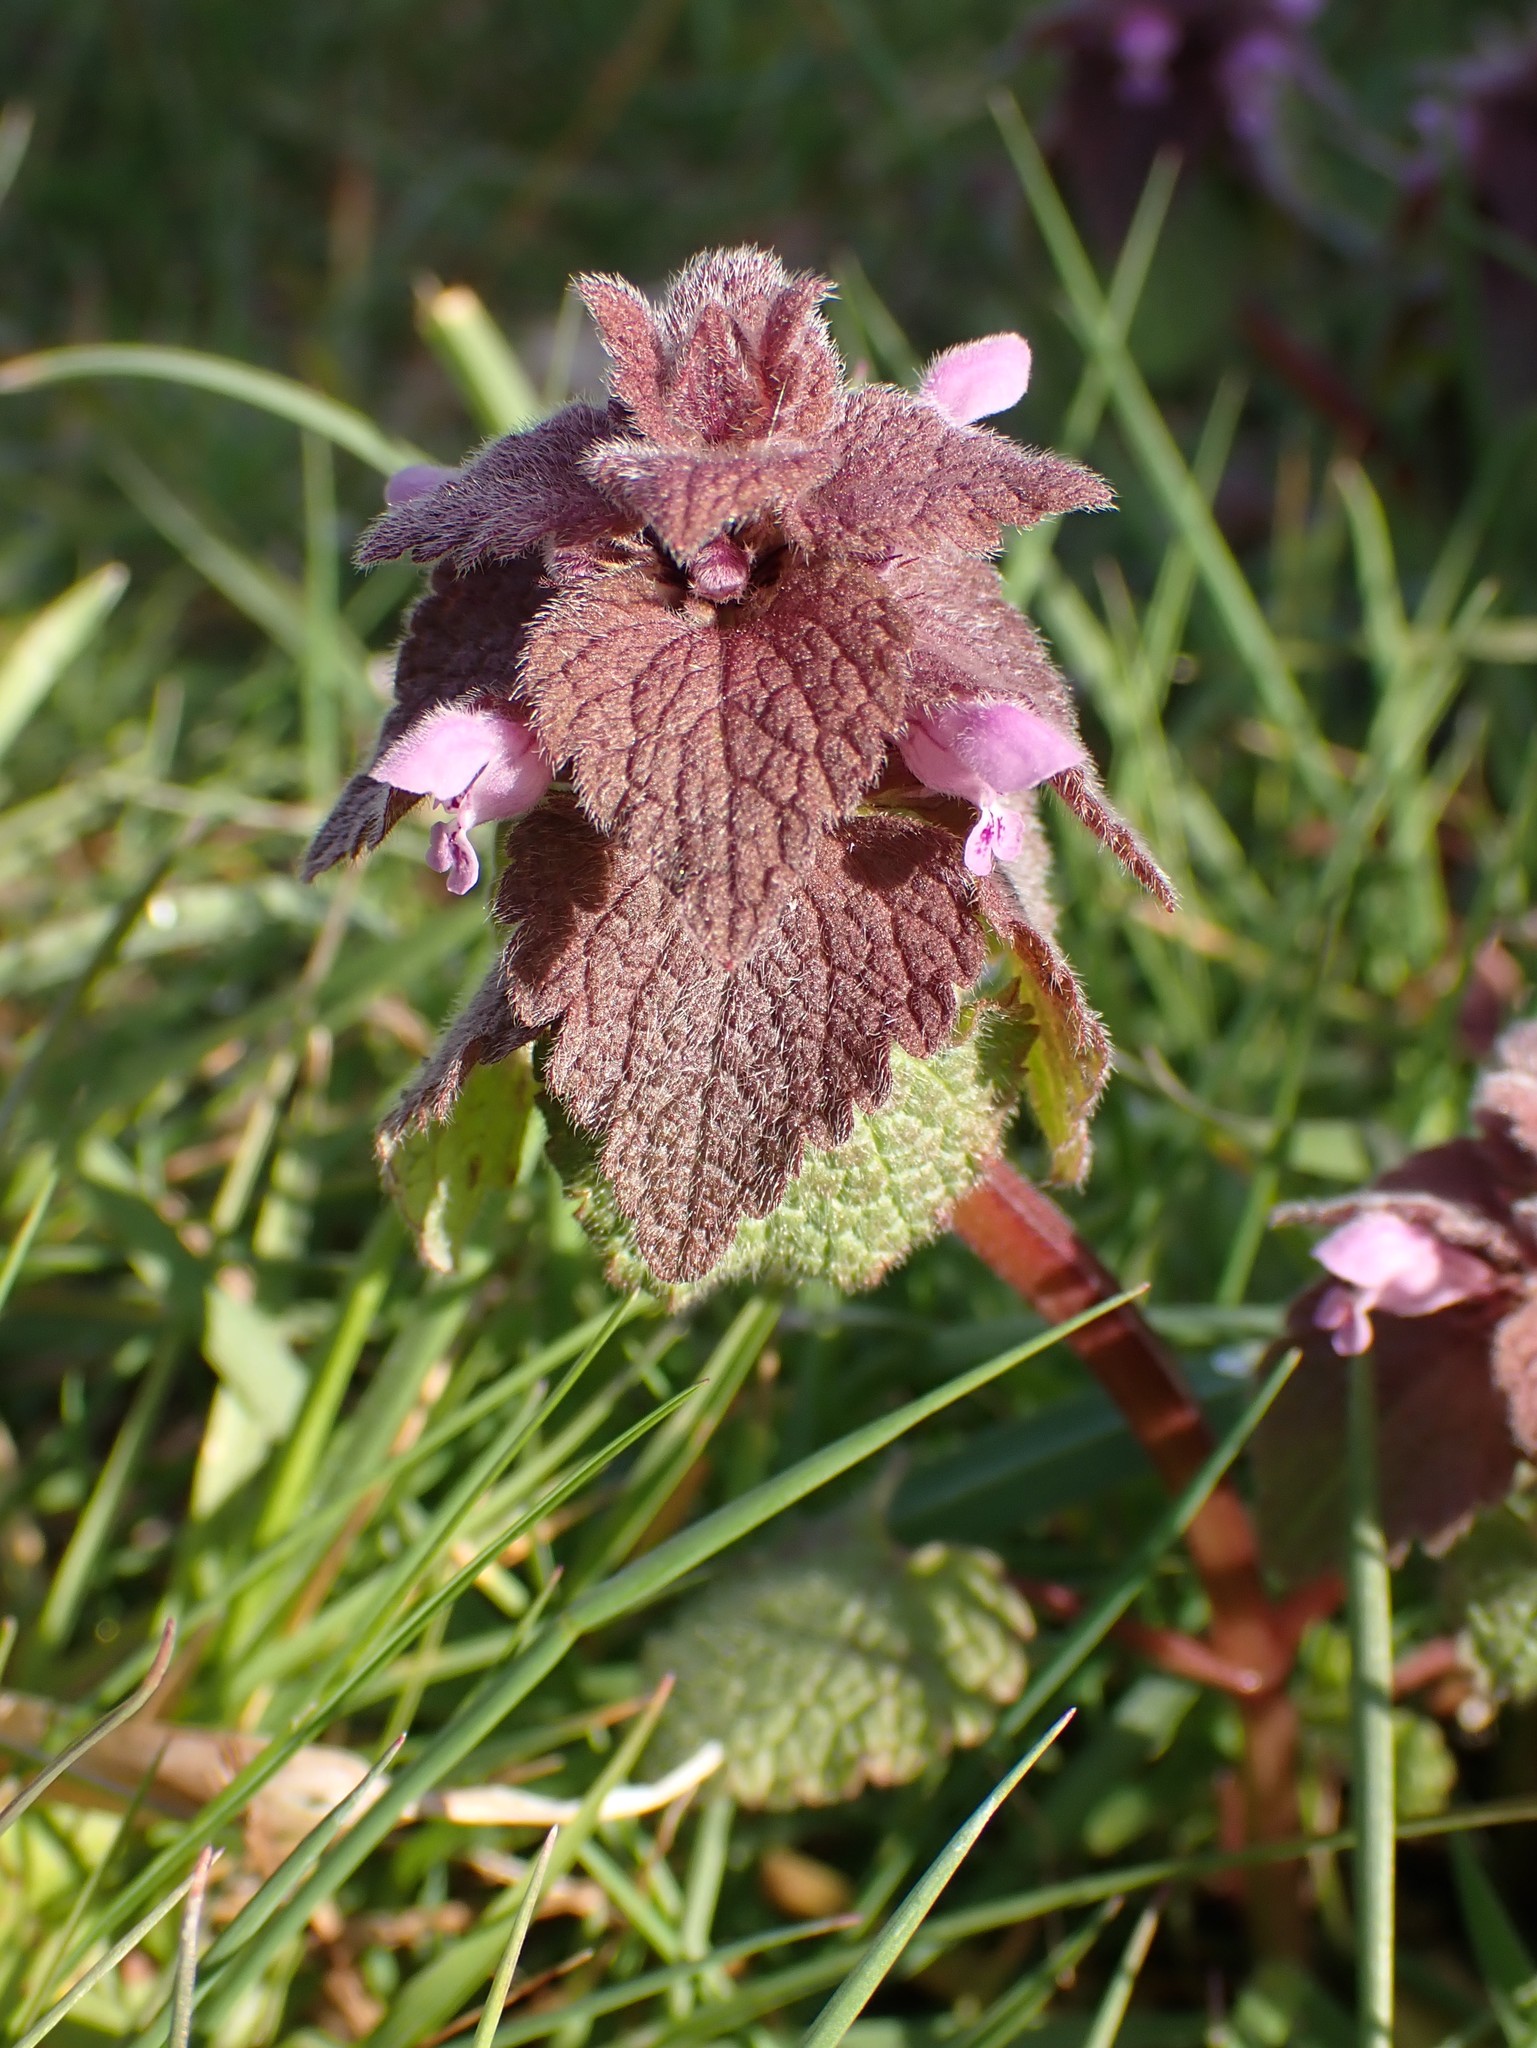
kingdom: Plantae
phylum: Tracheophyta
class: Magnoliopsida
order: Lamiales
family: Lamiaceae
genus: Lamium
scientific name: Lamium purpureum
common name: Red dead-nettle
